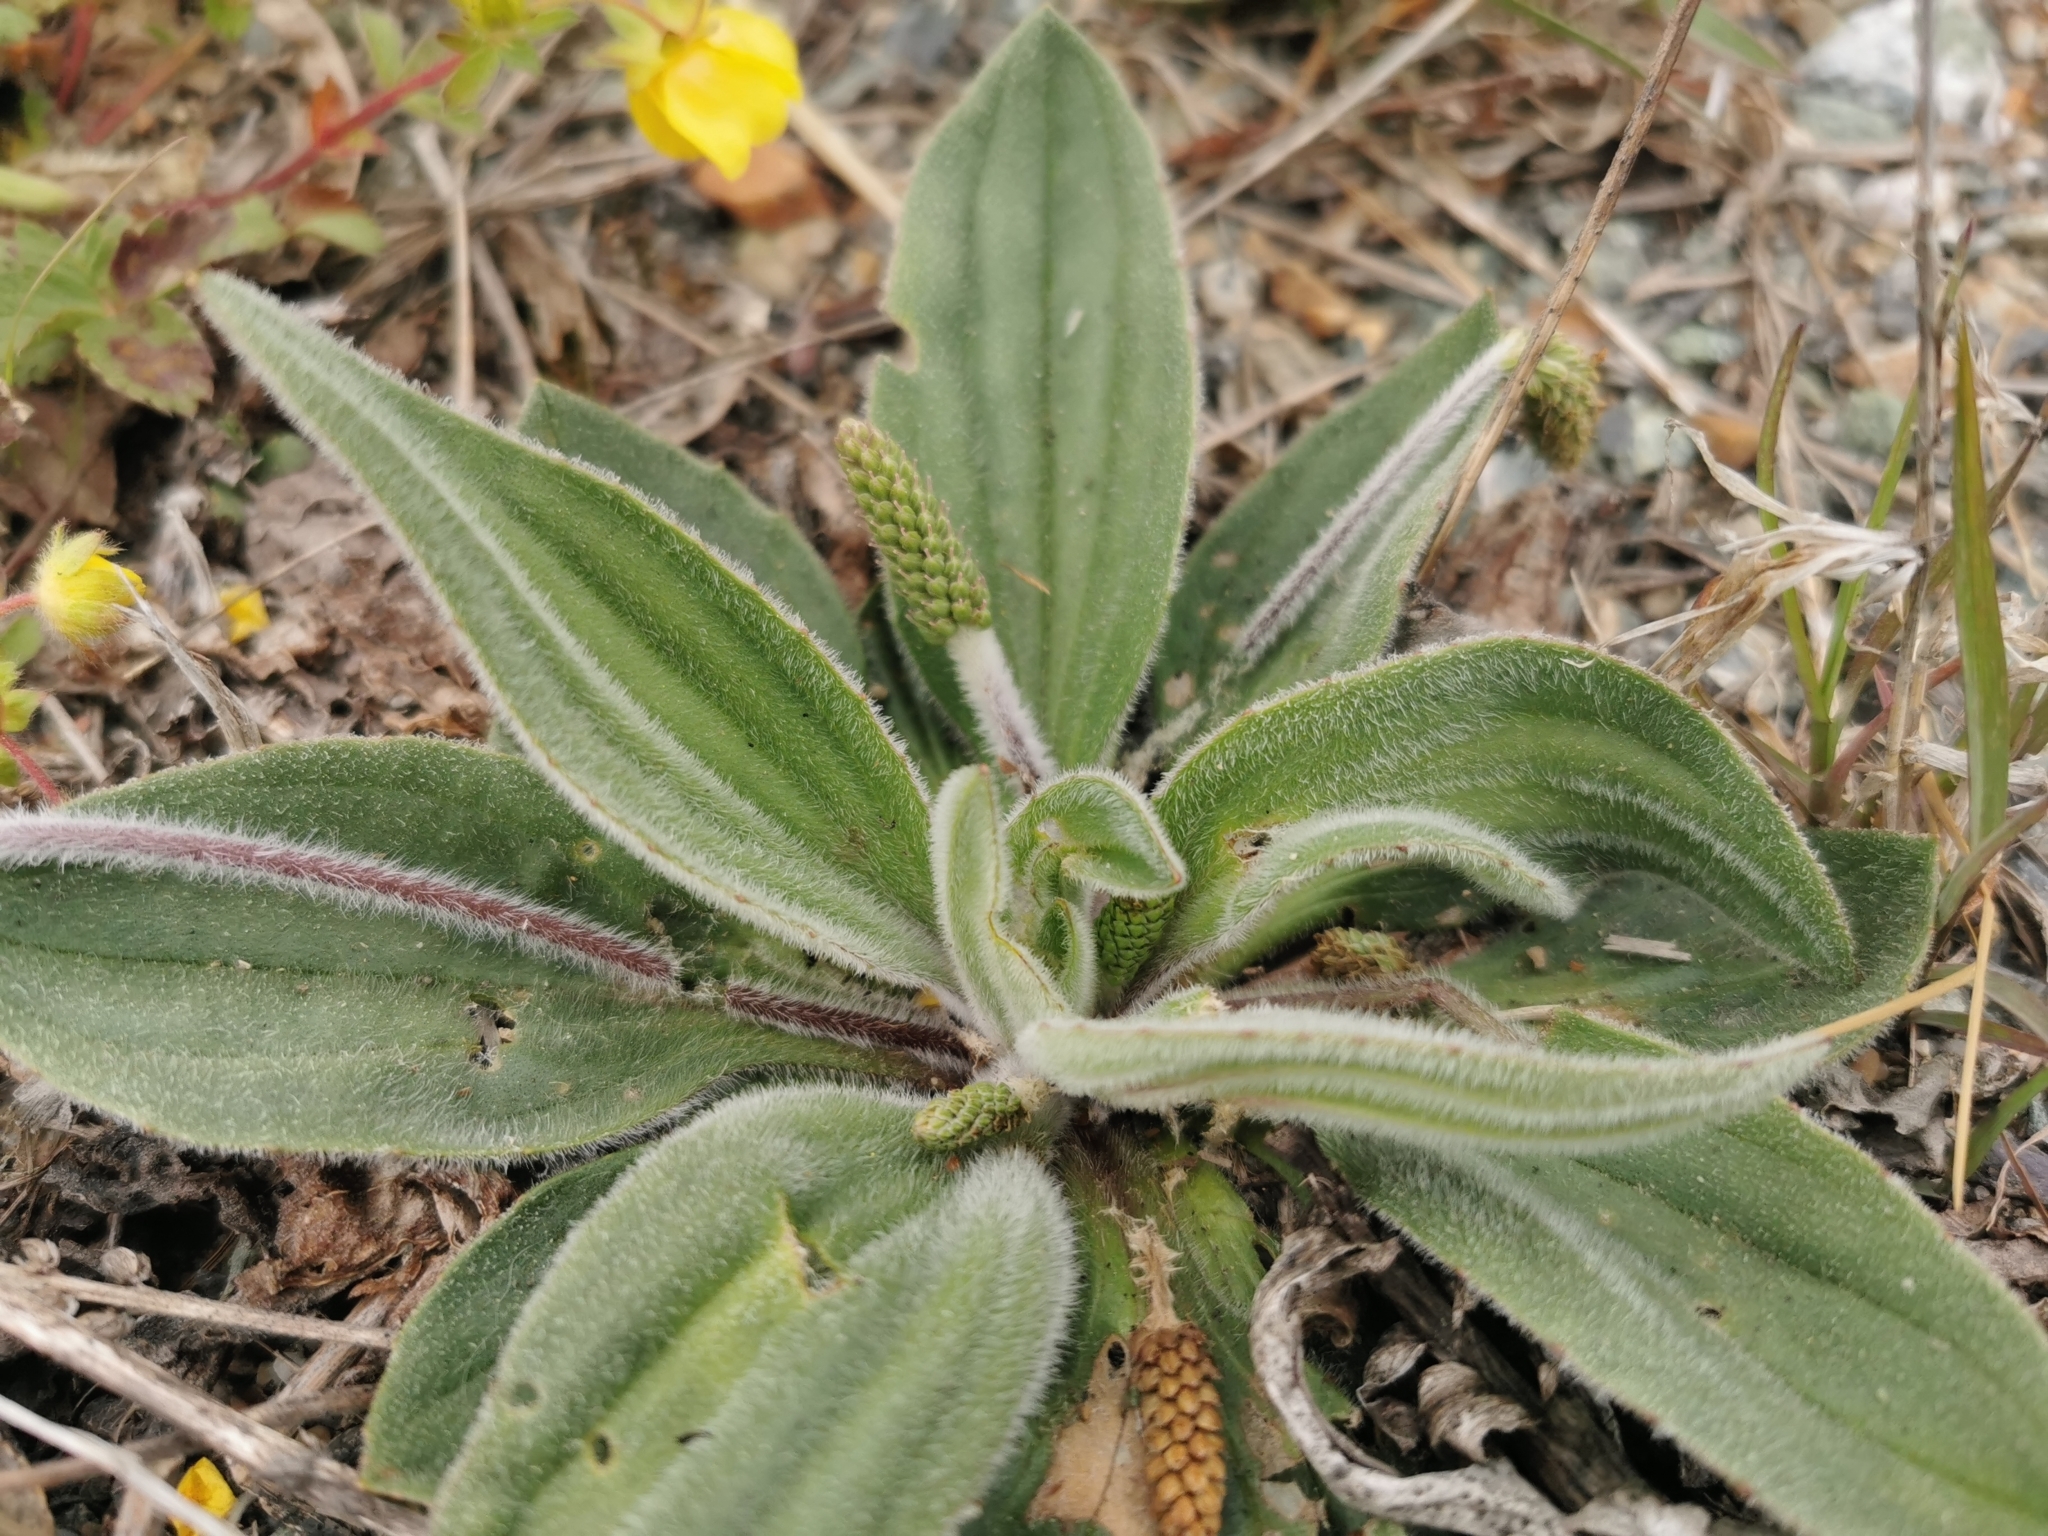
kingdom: Plantae
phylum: Tracheophyta
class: Magnoliopsida
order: Lamiales
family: Plantaginaceae
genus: Plantago
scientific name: Plantago camtschatica
